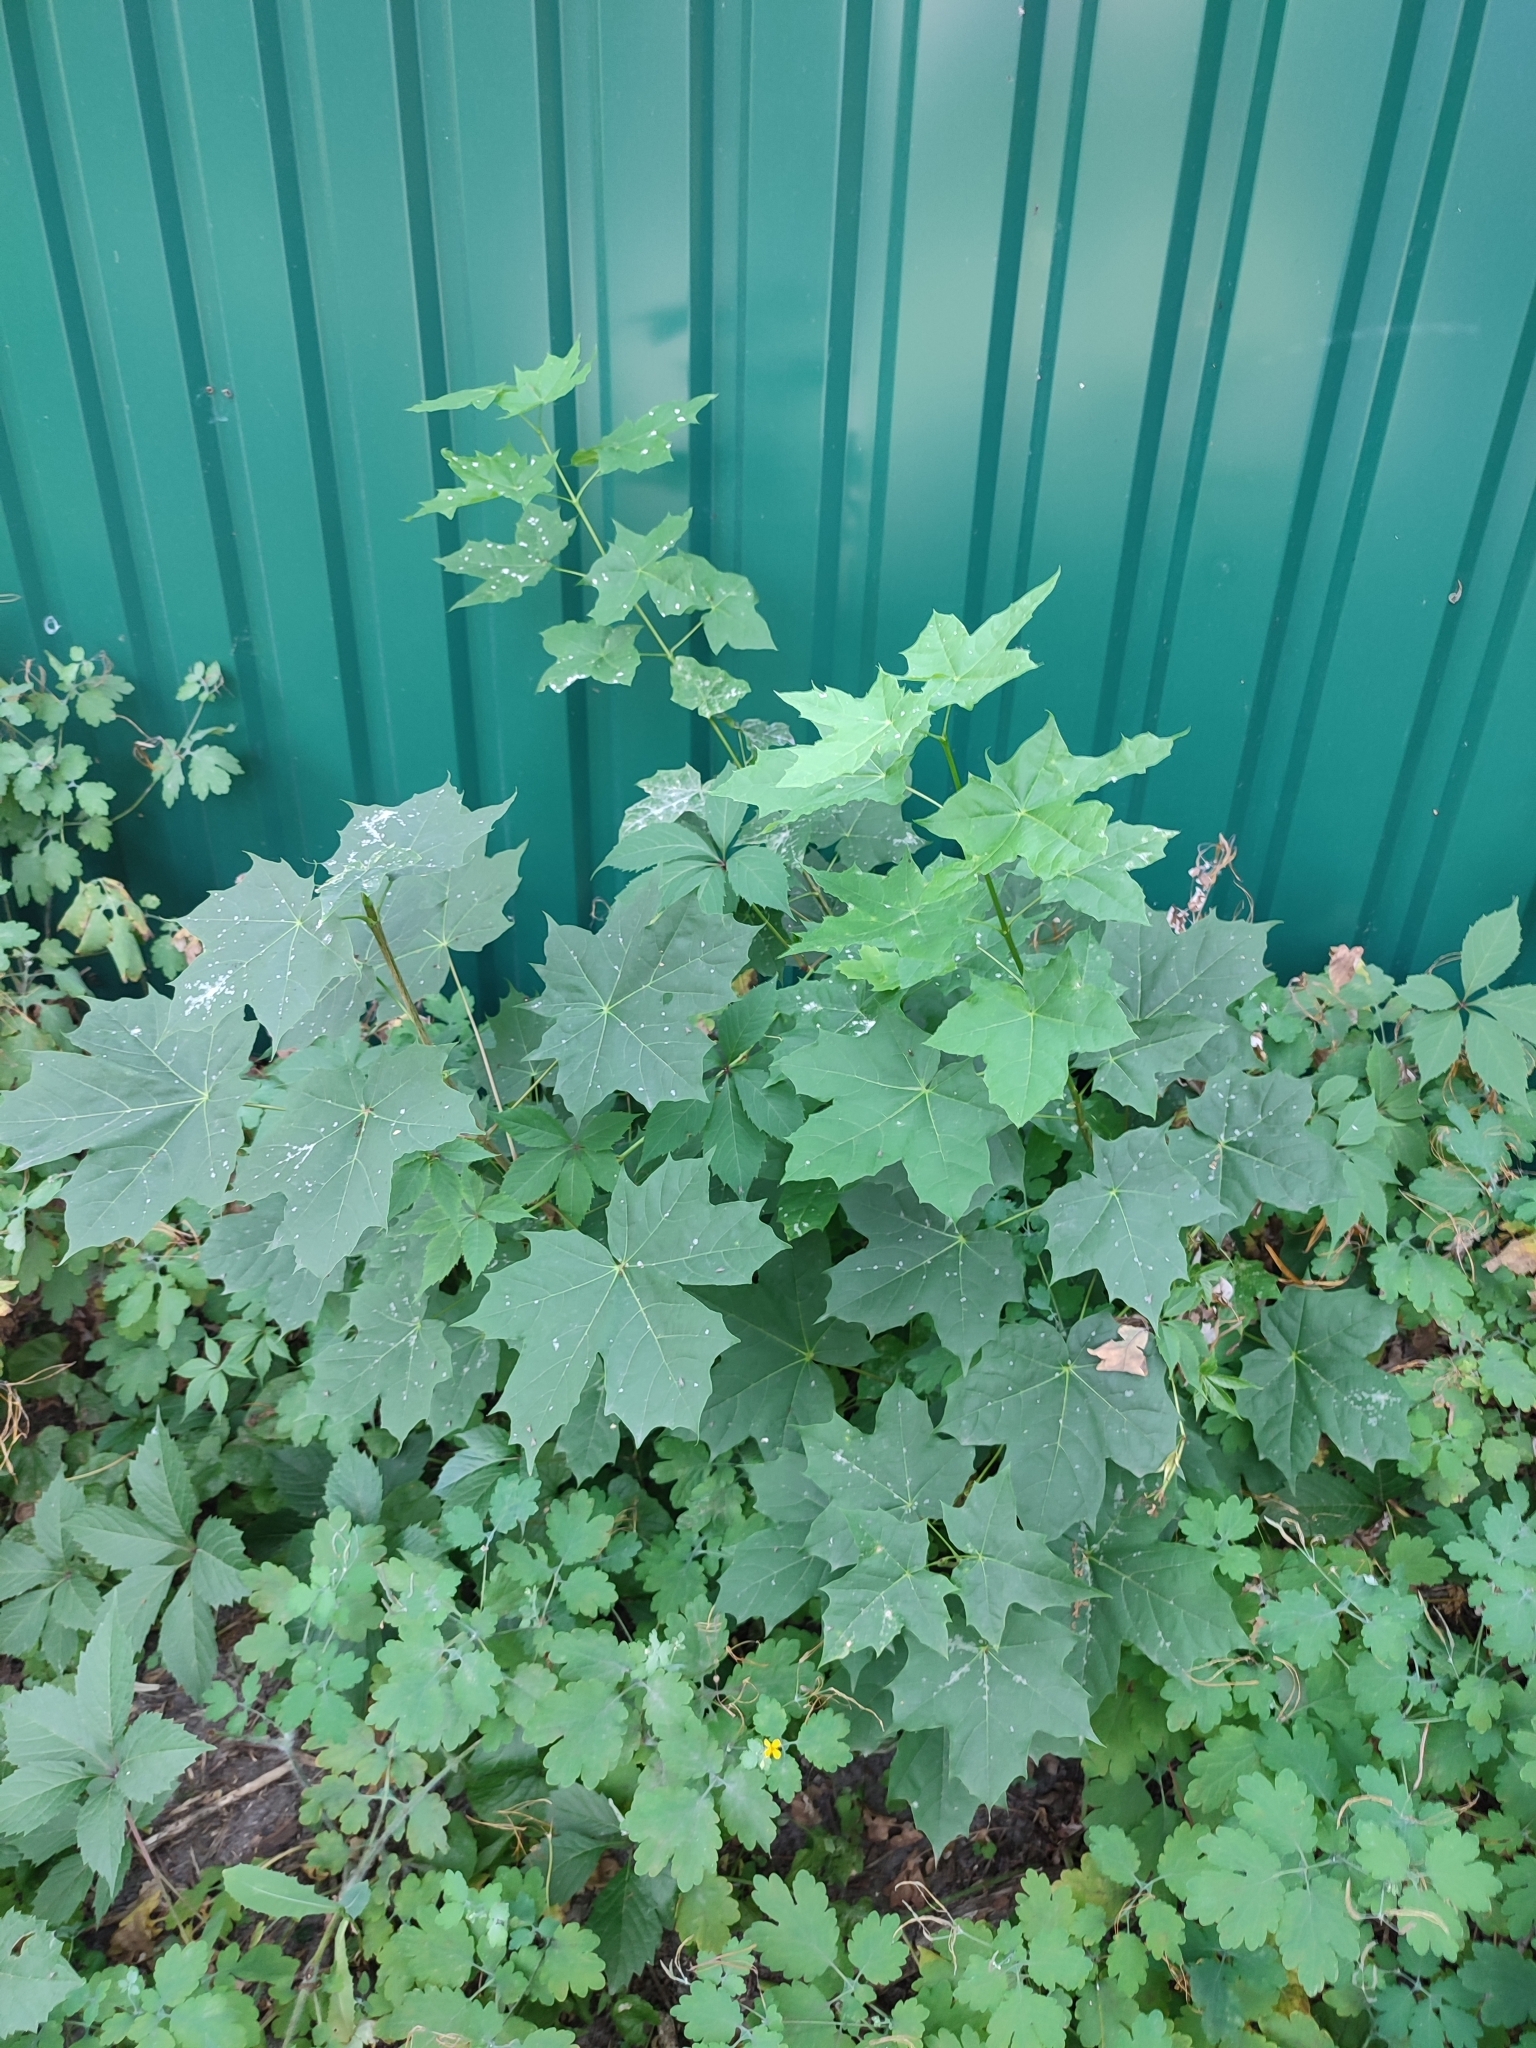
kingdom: Plantae
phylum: Tracheophyta
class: Magnoliopsida
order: Sapindales
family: Sapindaceae
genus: Acer
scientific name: Acer platanoides
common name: Norway maple
